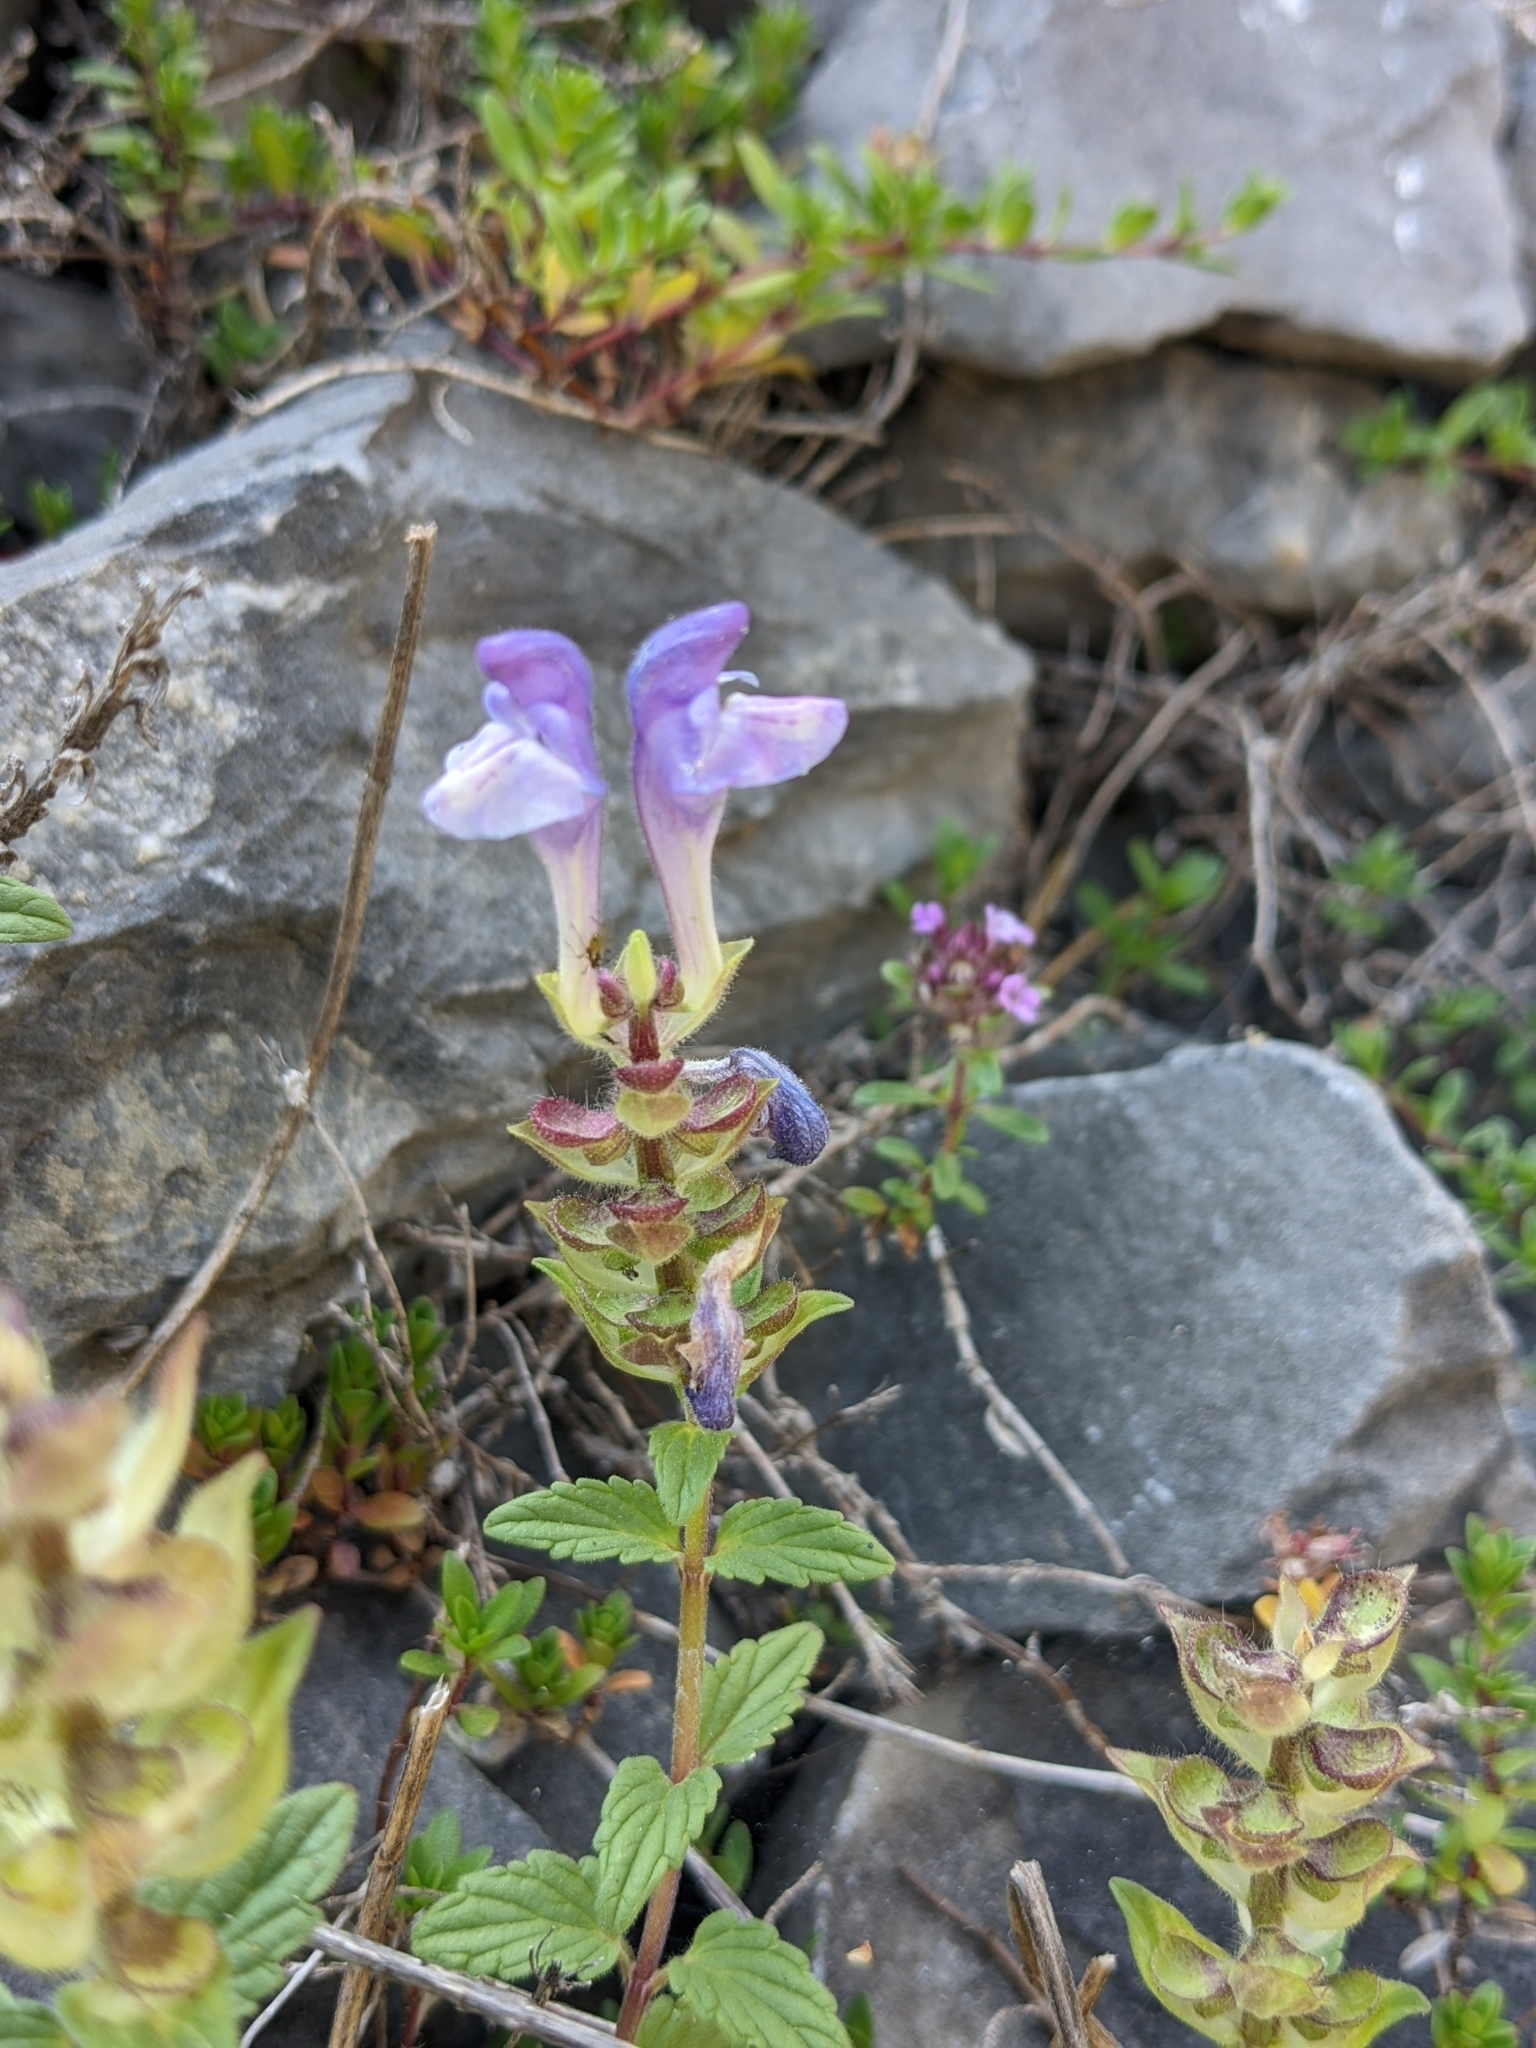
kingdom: Plantae
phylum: Tracheophyta
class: Magnoliopsida
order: Lamiales
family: Lamiaceae
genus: Scutellaria
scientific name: Scutellaria alpina
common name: Alpine scullcap
